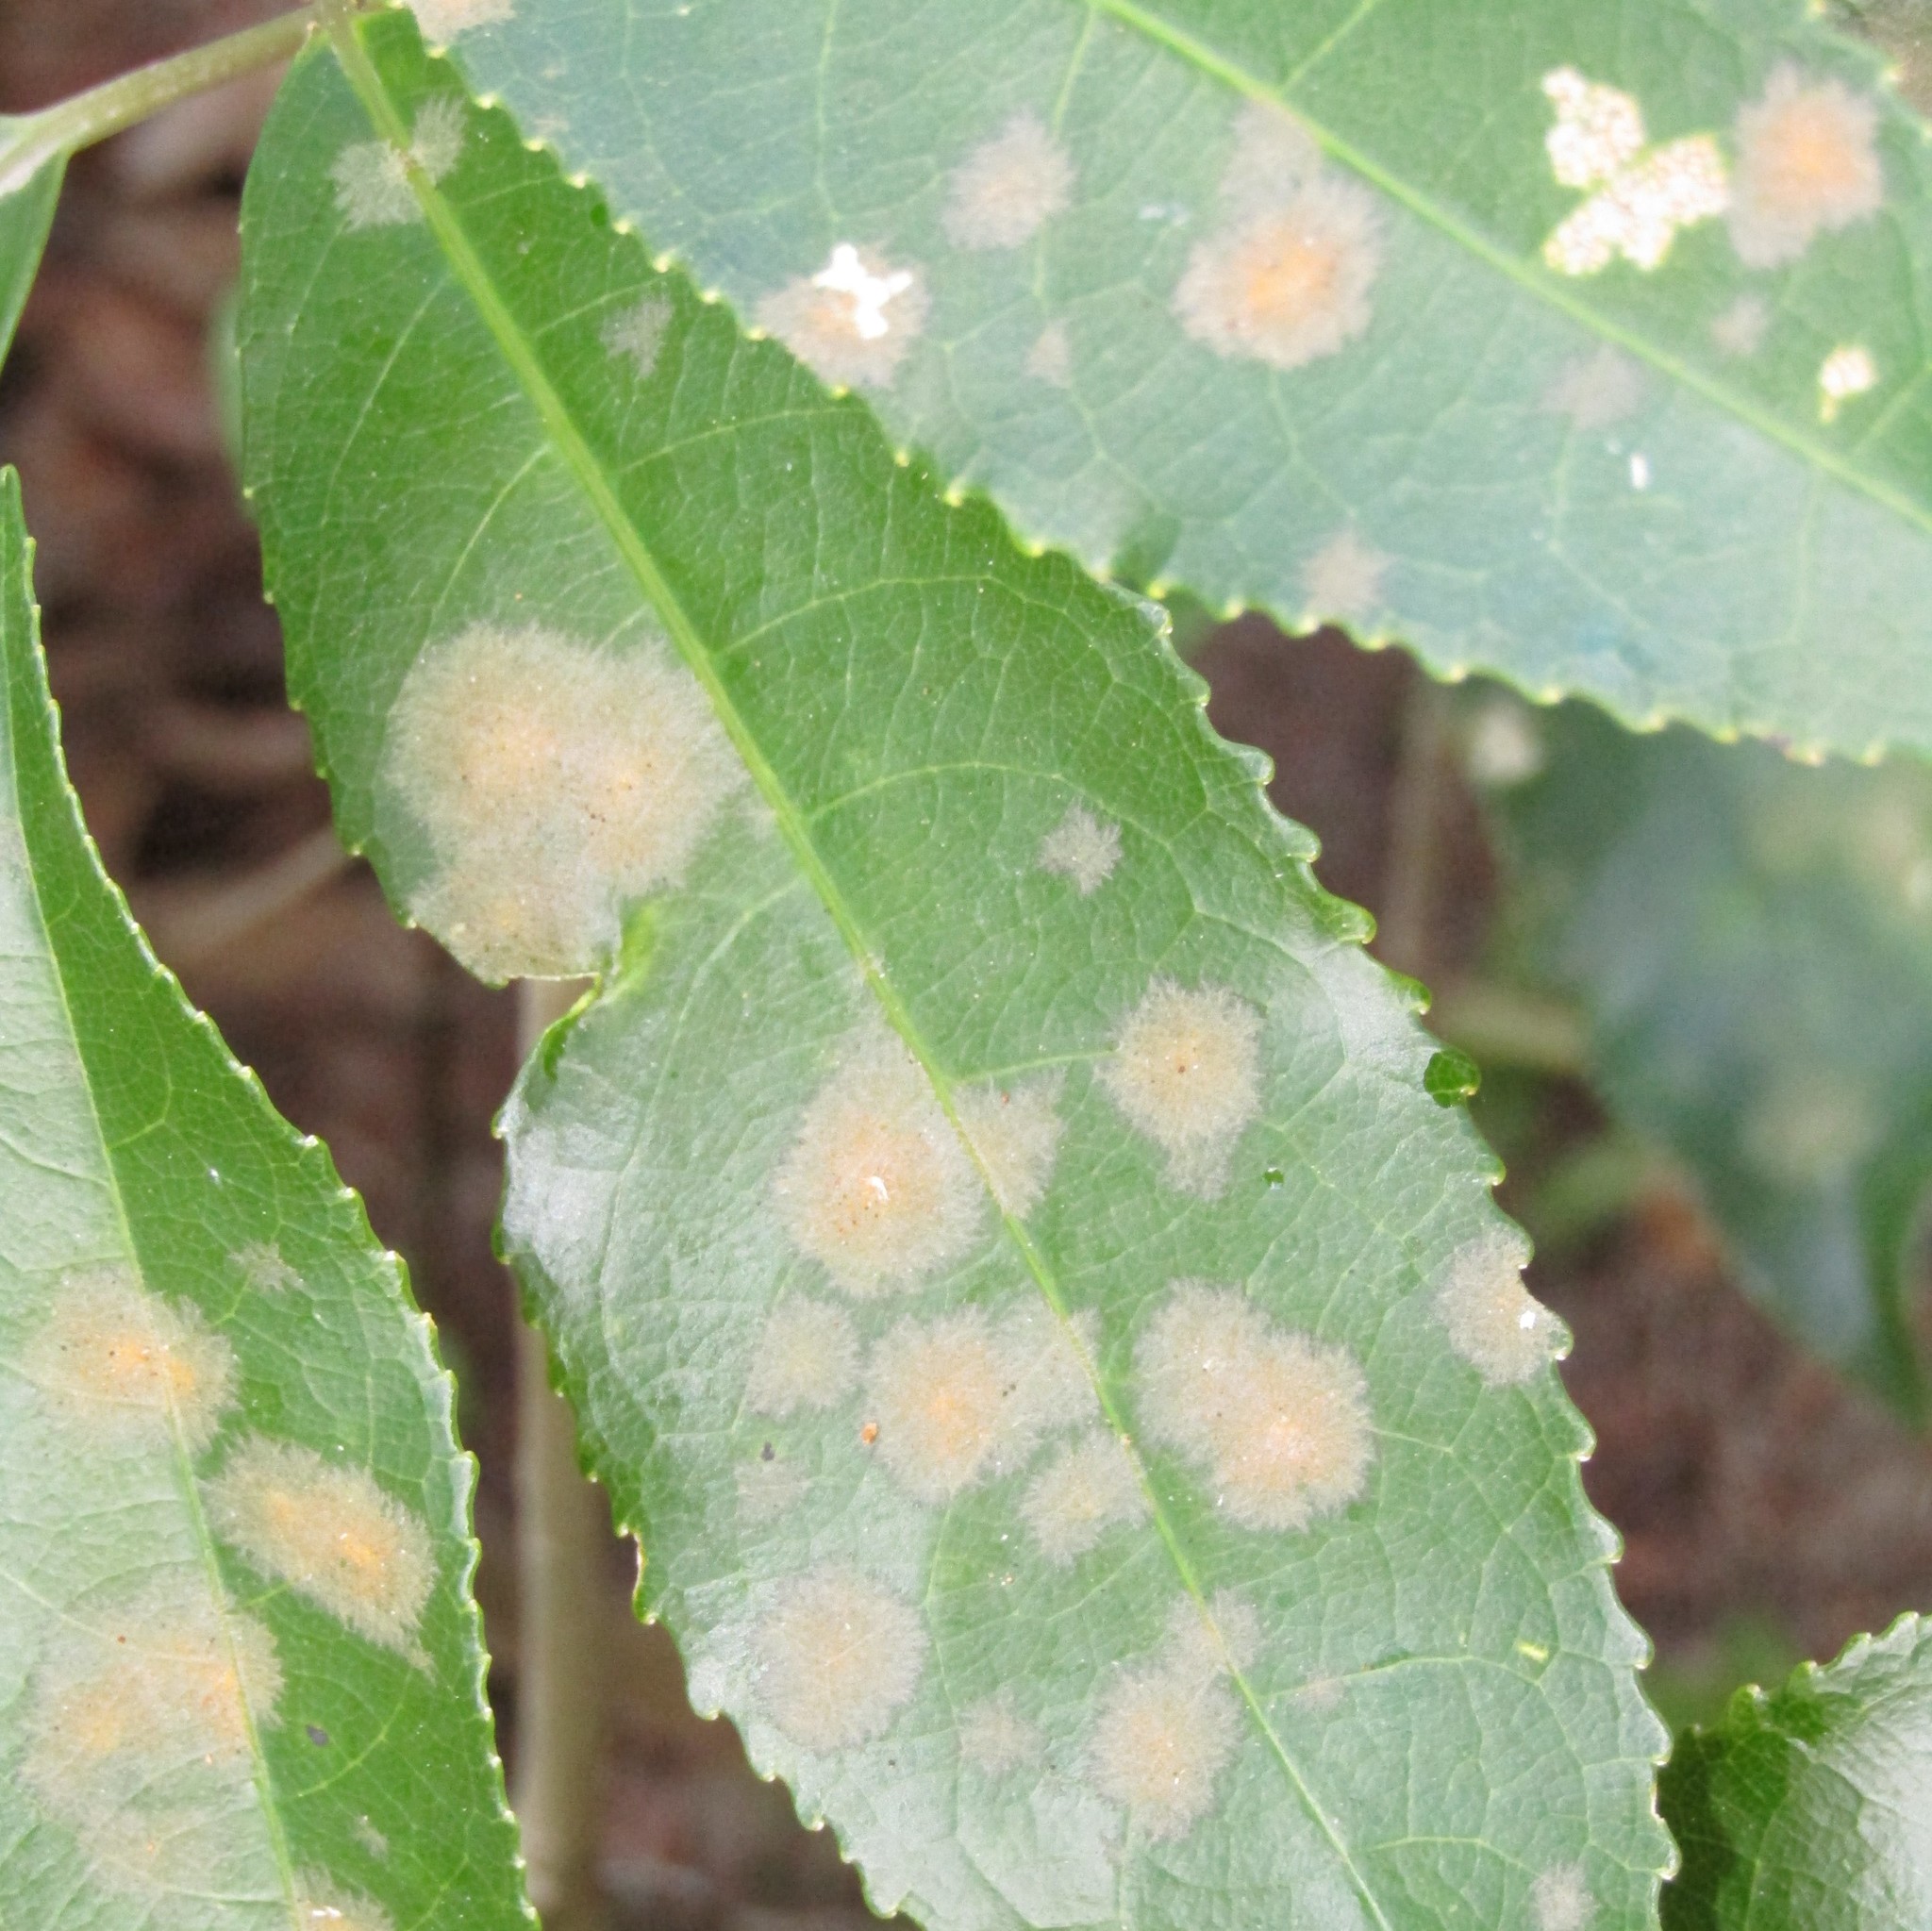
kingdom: Plantae
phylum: Chlorophyta
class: Ulvophyceae
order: Trentepohliales
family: Trentepohliaceae
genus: Cephaleuros
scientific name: Cephaleuros
